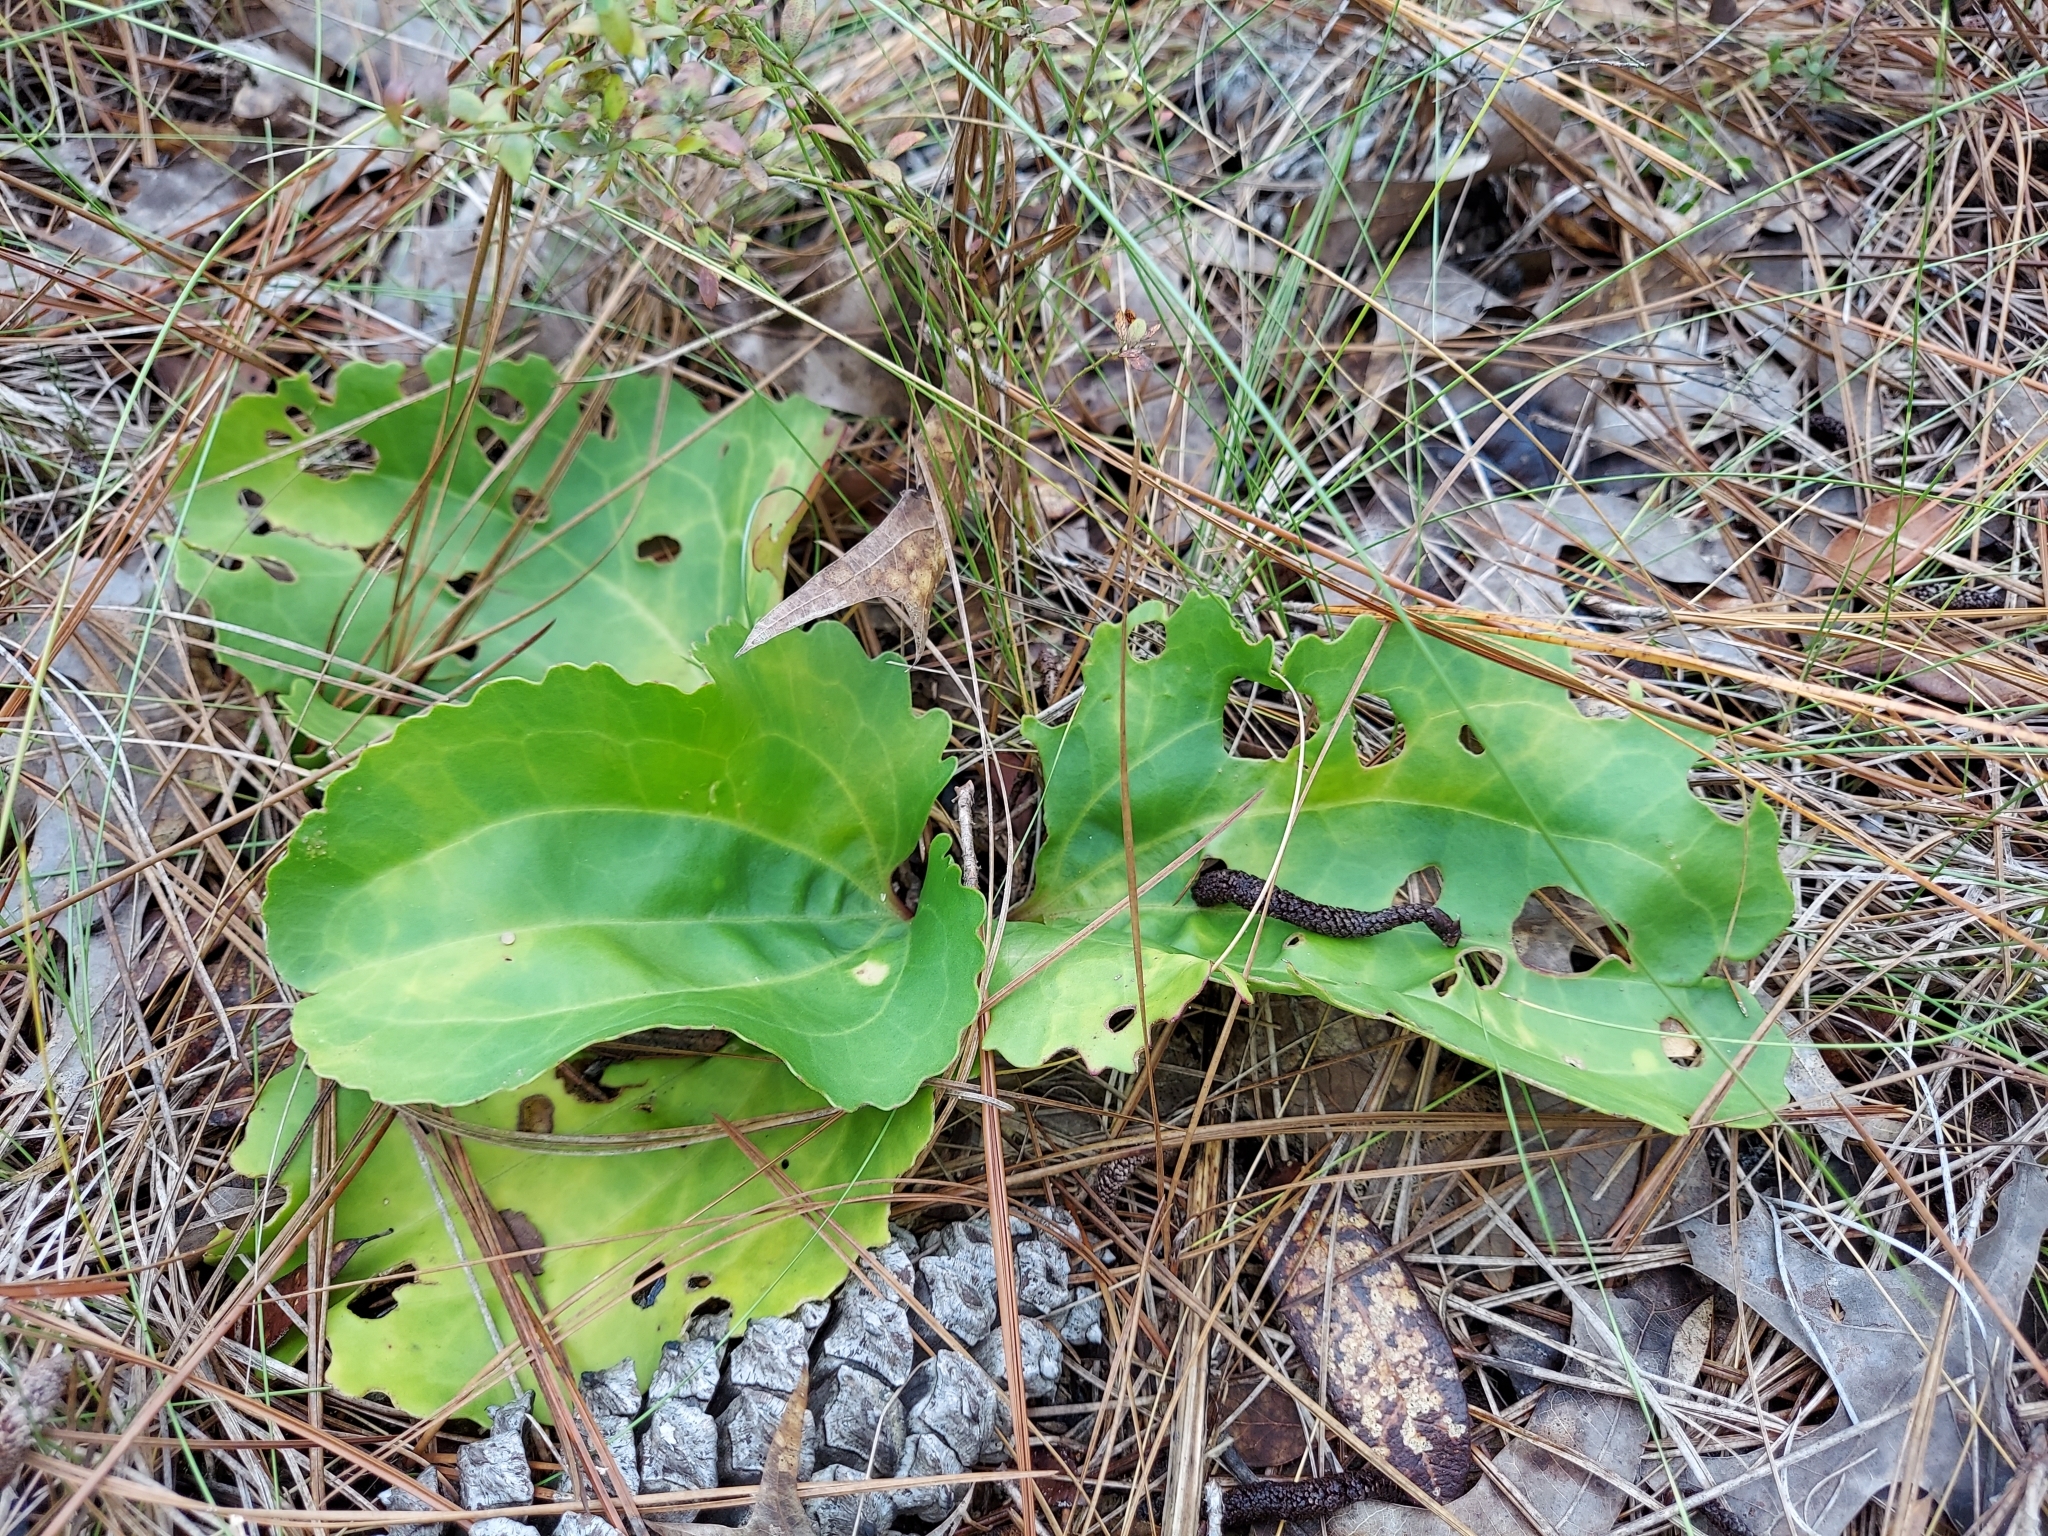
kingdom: Plantae
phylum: Tracheophyta
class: Magnoliopsida
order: Asterales
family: Asteraceae
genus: Arnoglossum
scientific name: Arnoglossum floridanum
